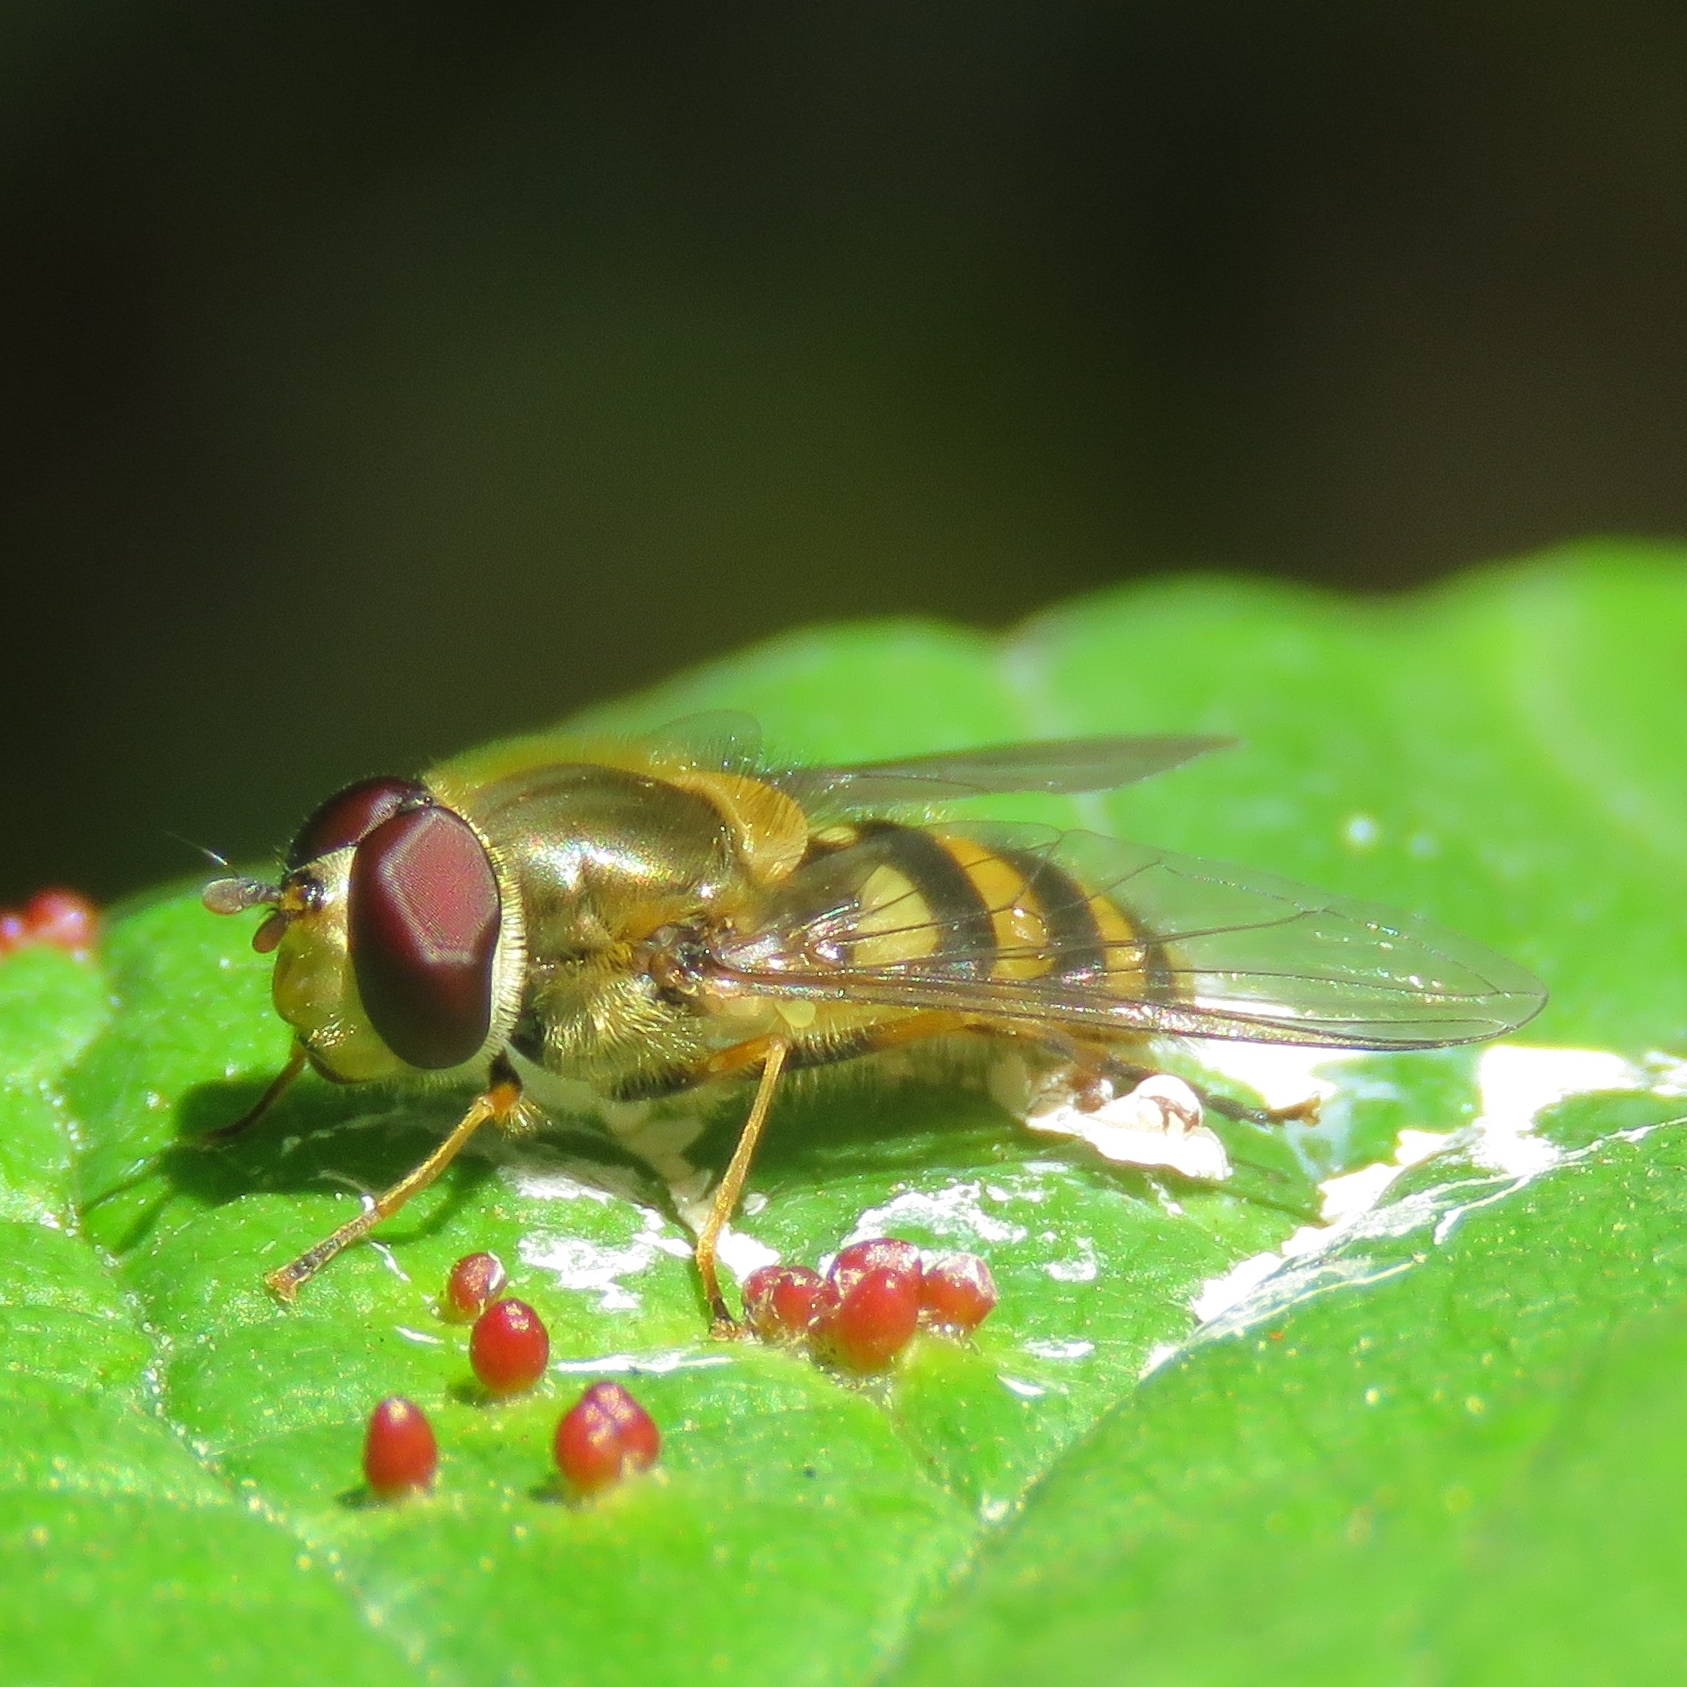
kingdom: Animalia
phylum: Arthropoda
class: Insecta
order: Diptera
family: Syrphidae
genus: Syrphus
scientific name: Syrphus
